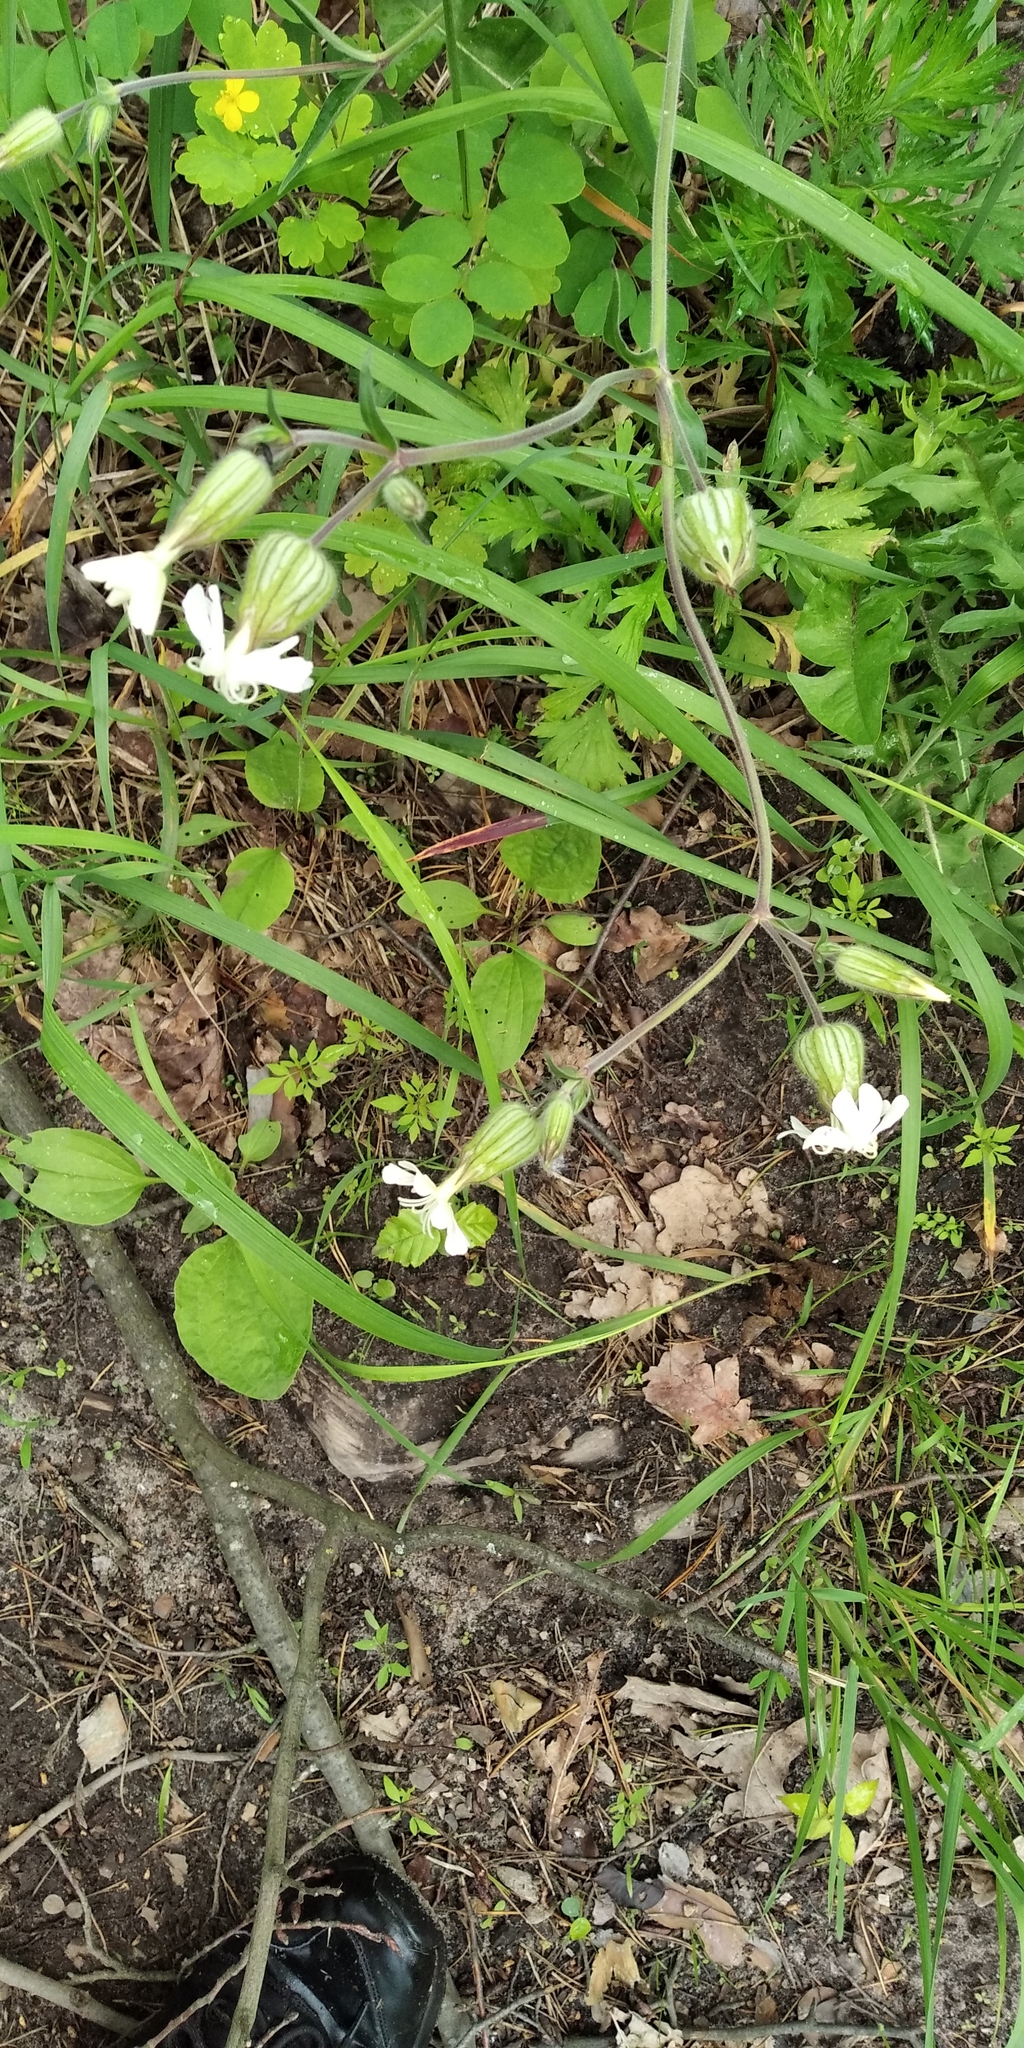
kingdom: Plantae
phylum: Tracheophyta
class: Magnoliopsida
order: Caryophyllales
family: Caryophyllaceae
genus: Silene
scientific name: Silene latifolia
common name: White campion
